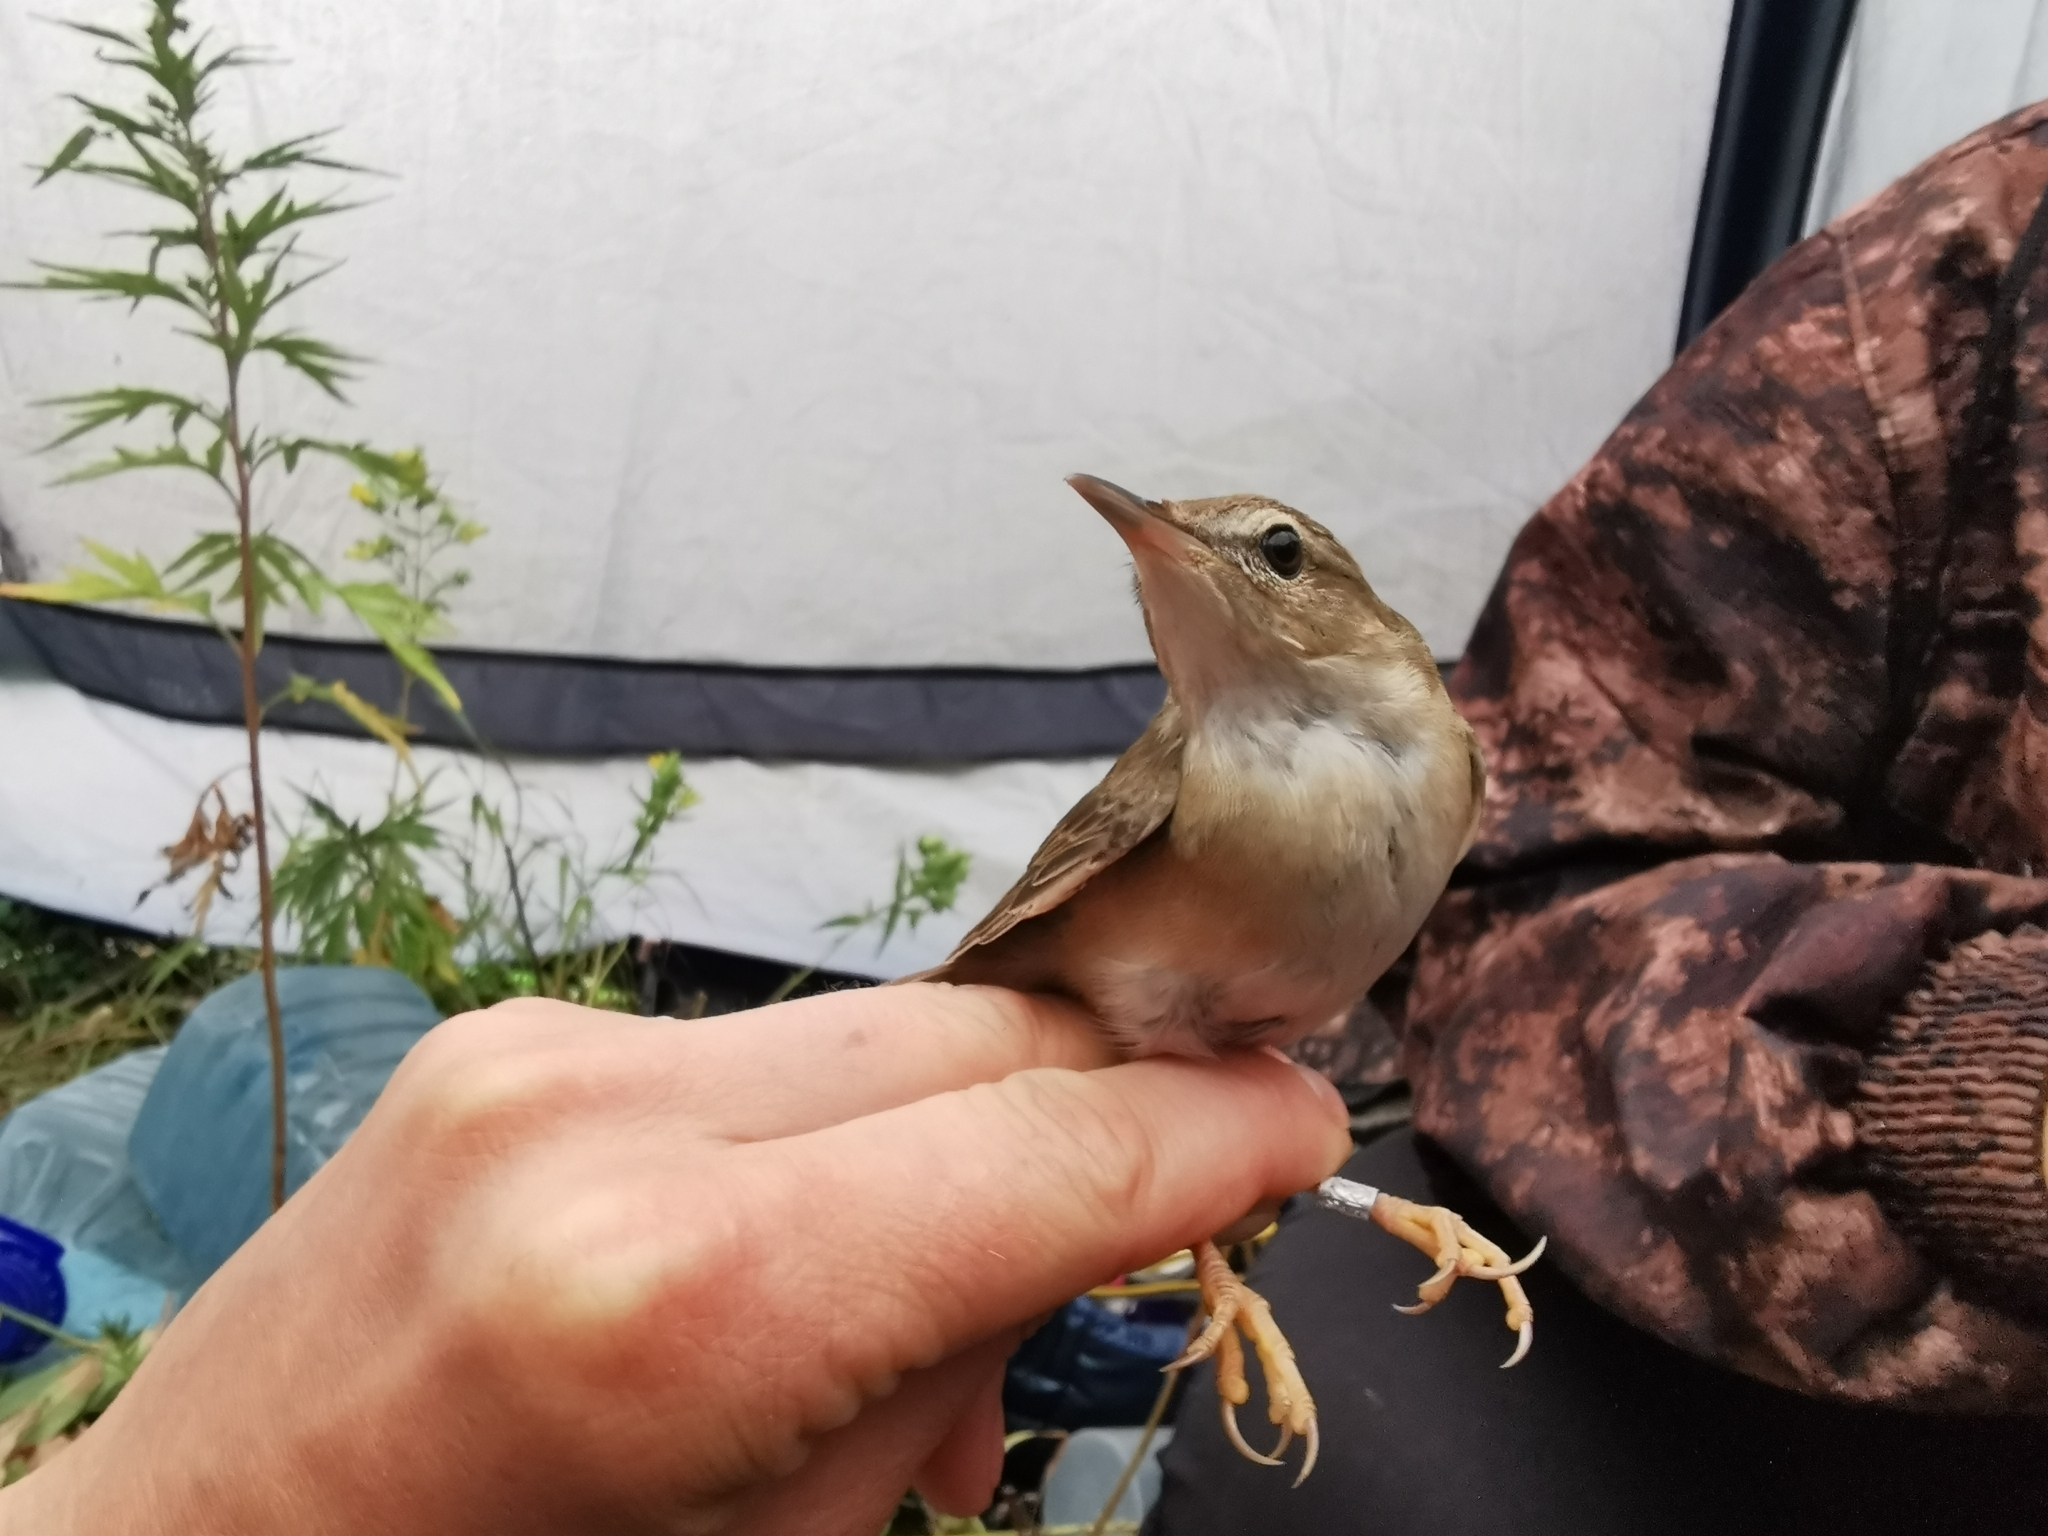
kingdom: Animalia
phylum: Chordata
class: Aves
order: Passeriformes
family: Locustellidae
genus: Locustella
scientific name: Locustella ochotensis
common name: Middendorff's grasshopper-warbler
